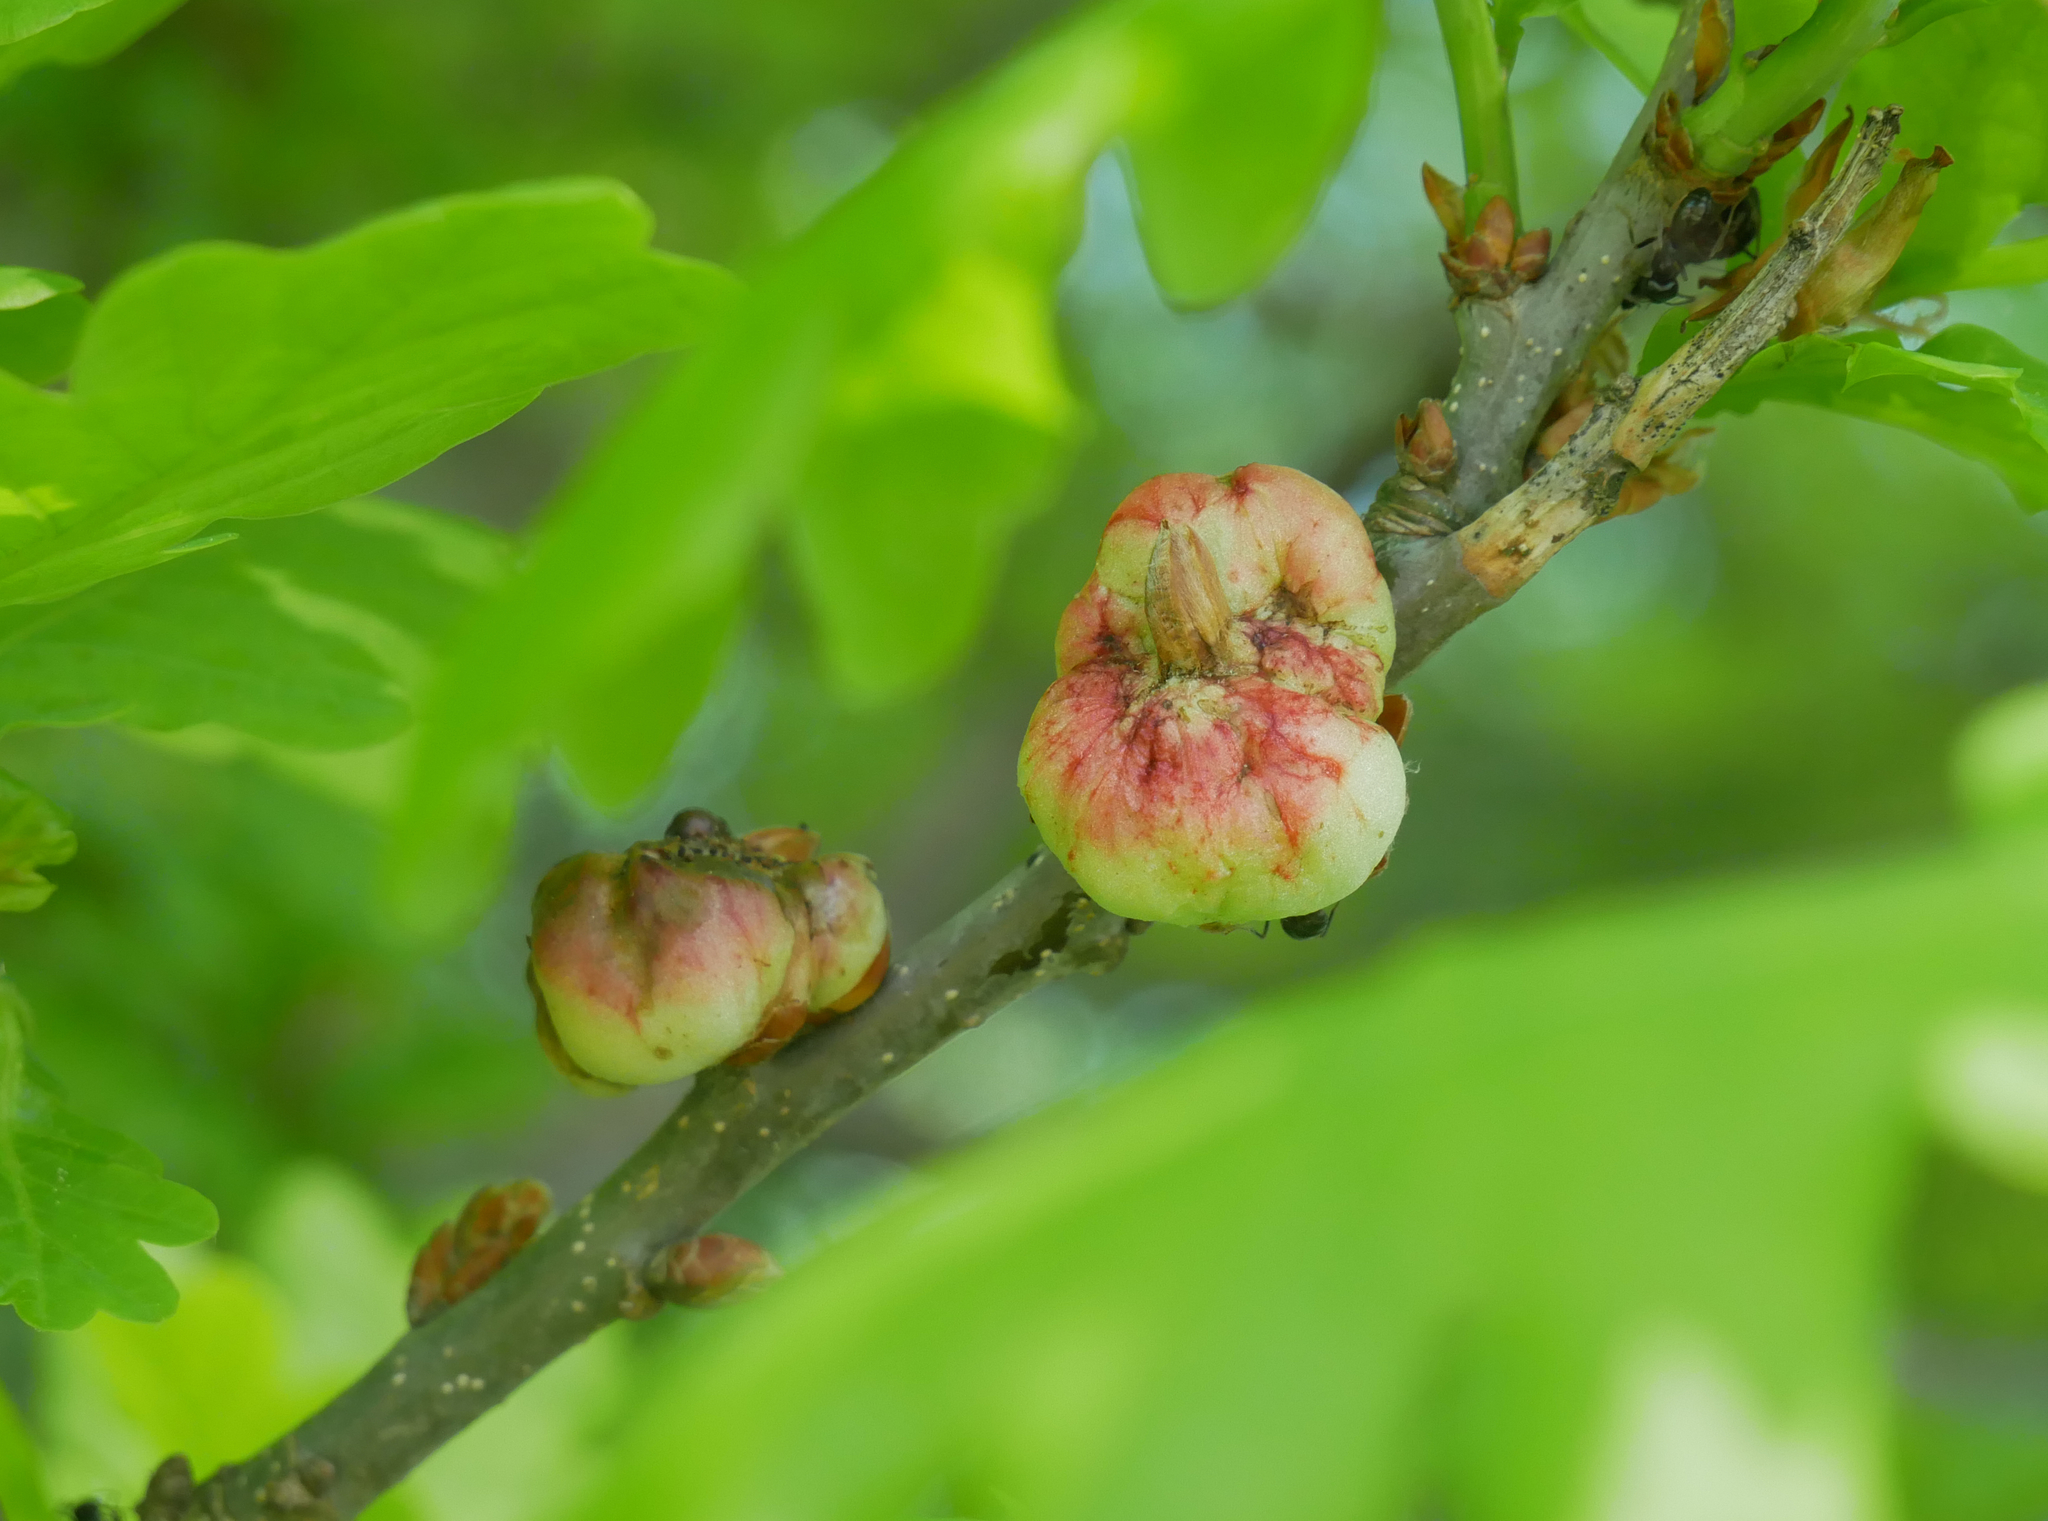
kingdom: Animalia
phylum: Arthropoda
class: Insecta
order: Hymenoptera
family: Cynipidae
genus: Biorhiza
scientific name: Biorhiza pallida
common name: Oak apple
